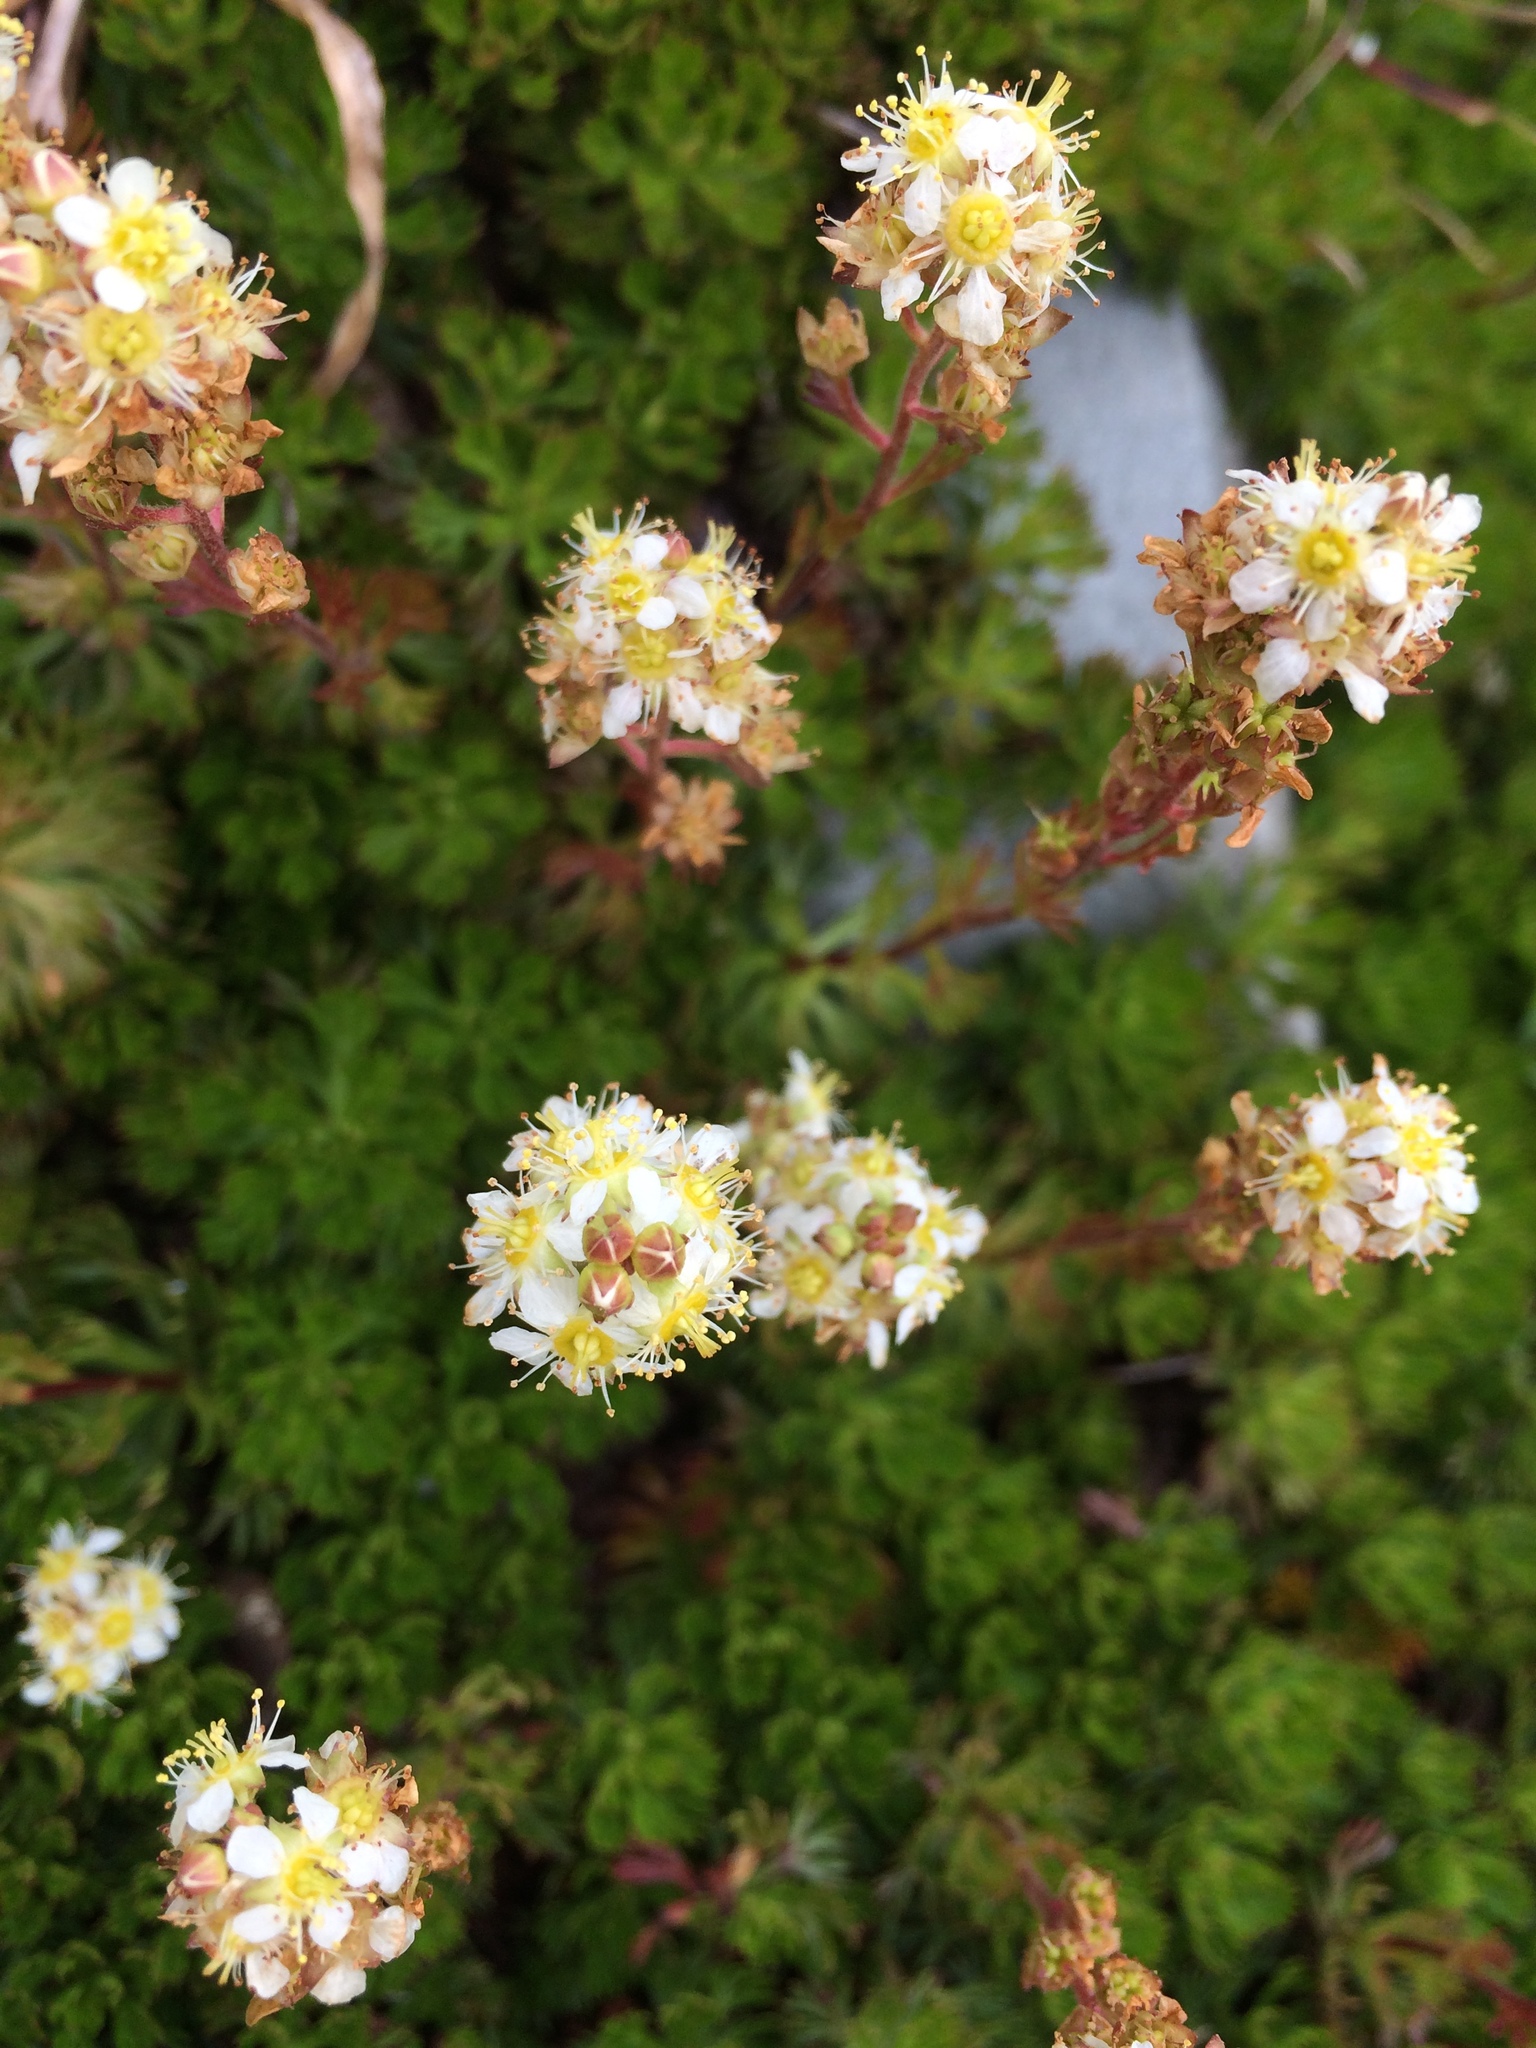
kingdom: Plantae
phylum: Tracheophyta
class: Magnoliopsida
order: Rosales
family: Rosaceae
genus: Luetkea
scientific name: Luetkea pectinata
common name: Partridgefoot
